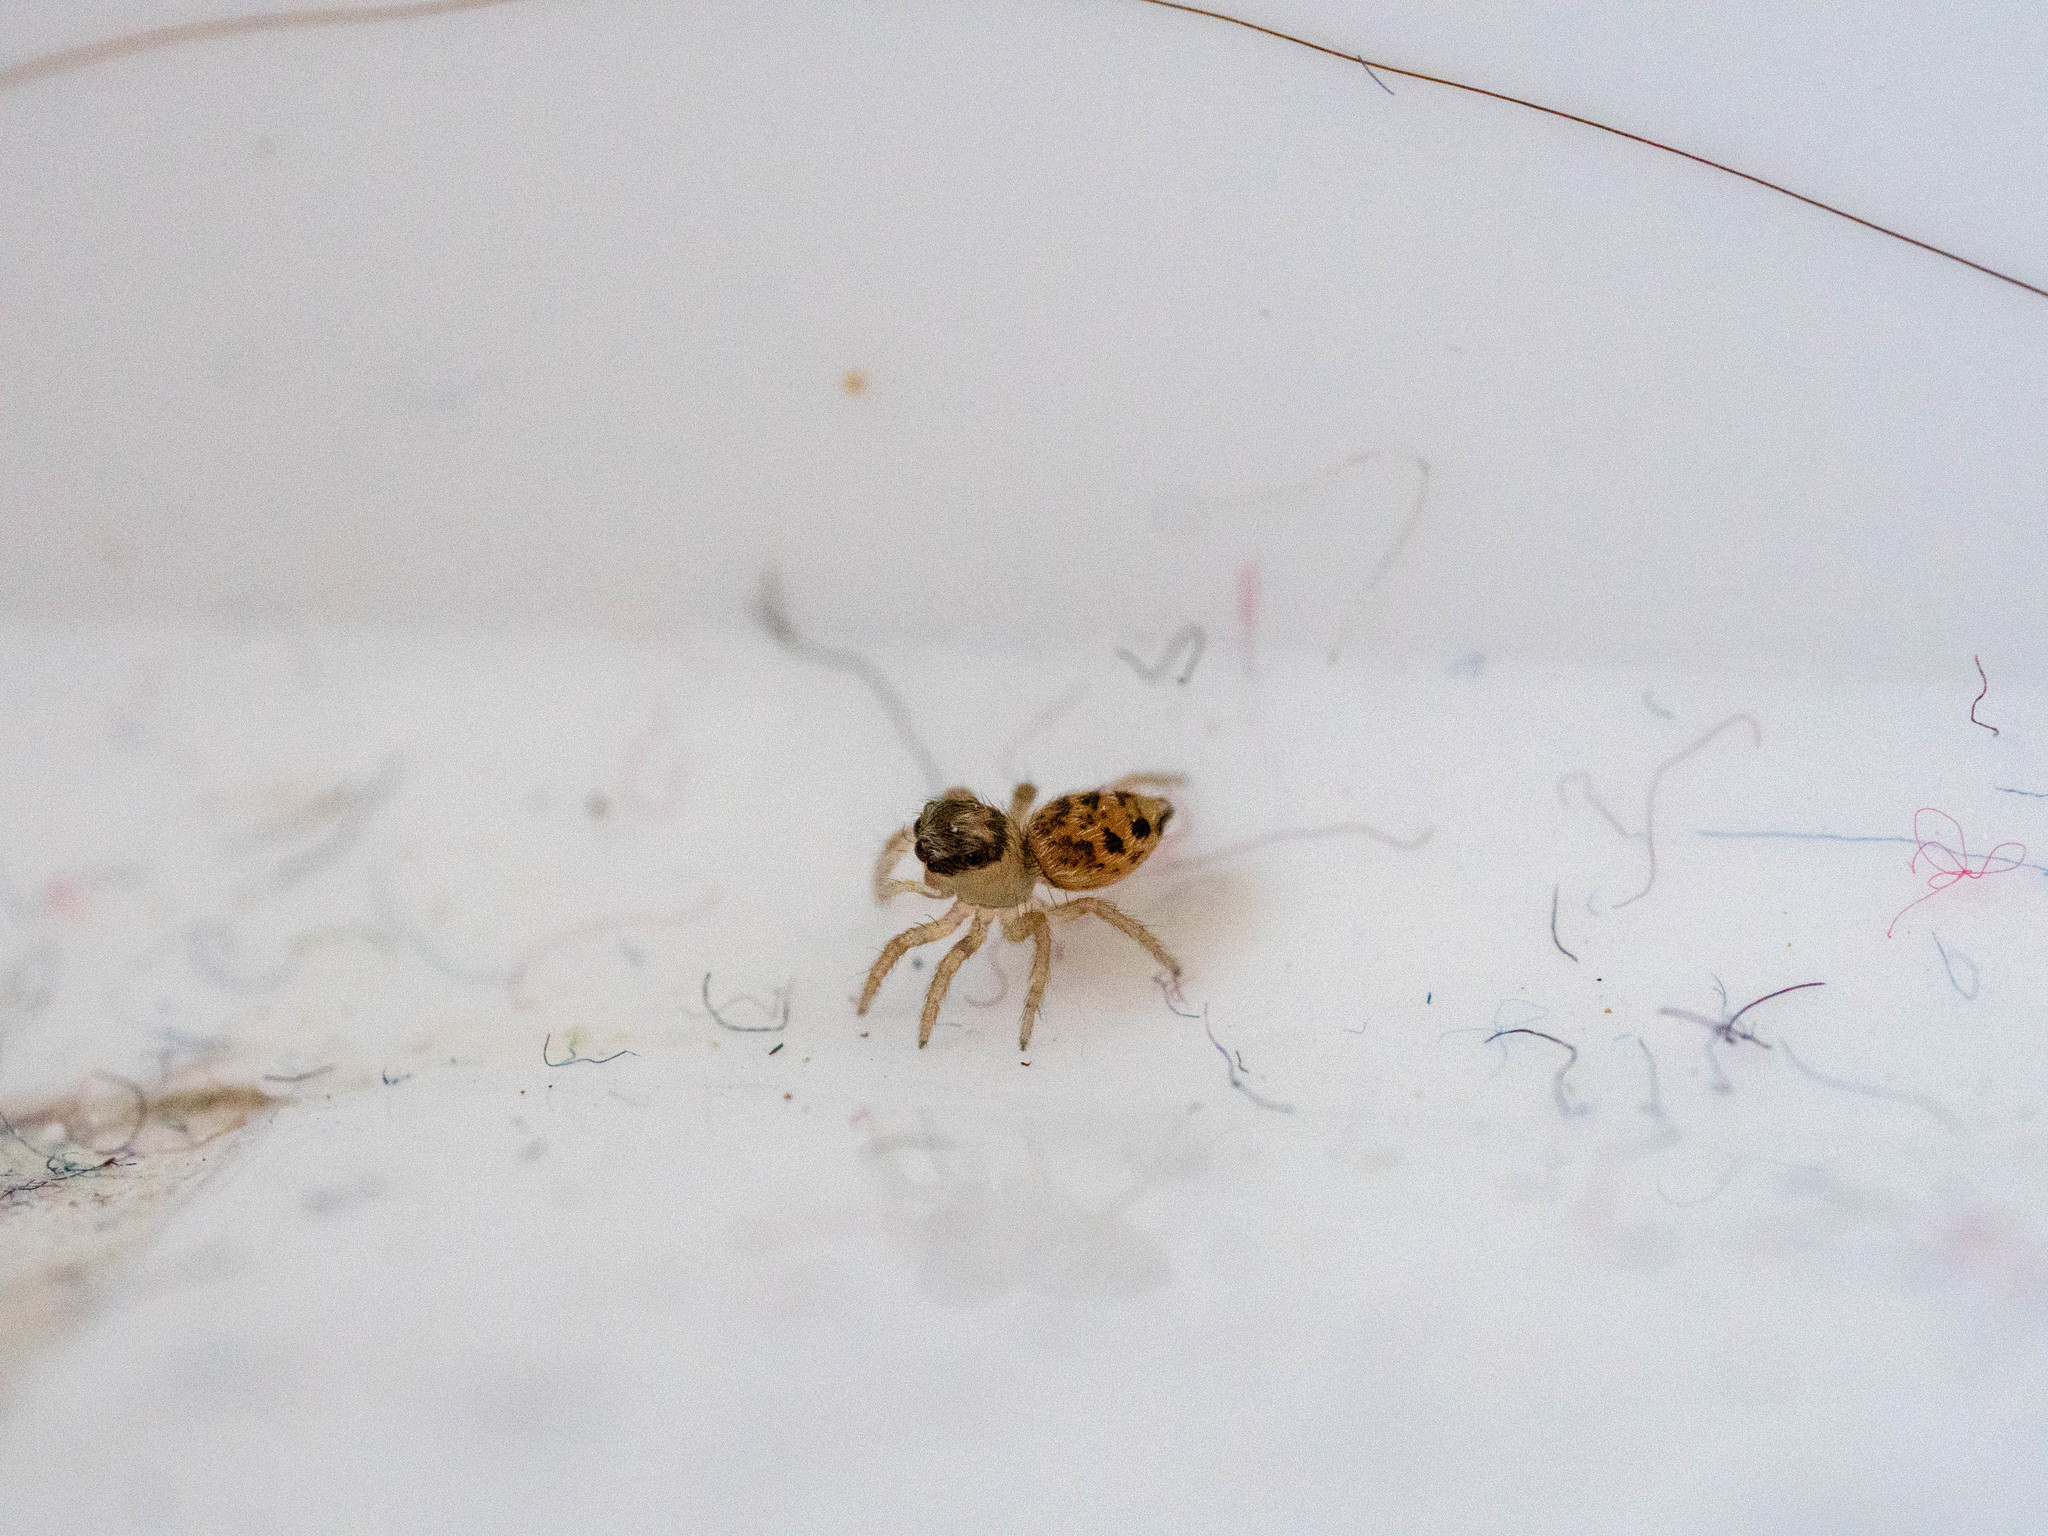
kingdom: Animalia
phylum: Arthropoda
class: Arachnida
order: Araneae
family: Salticidae
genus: Maratus
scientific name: Maratus griseus
